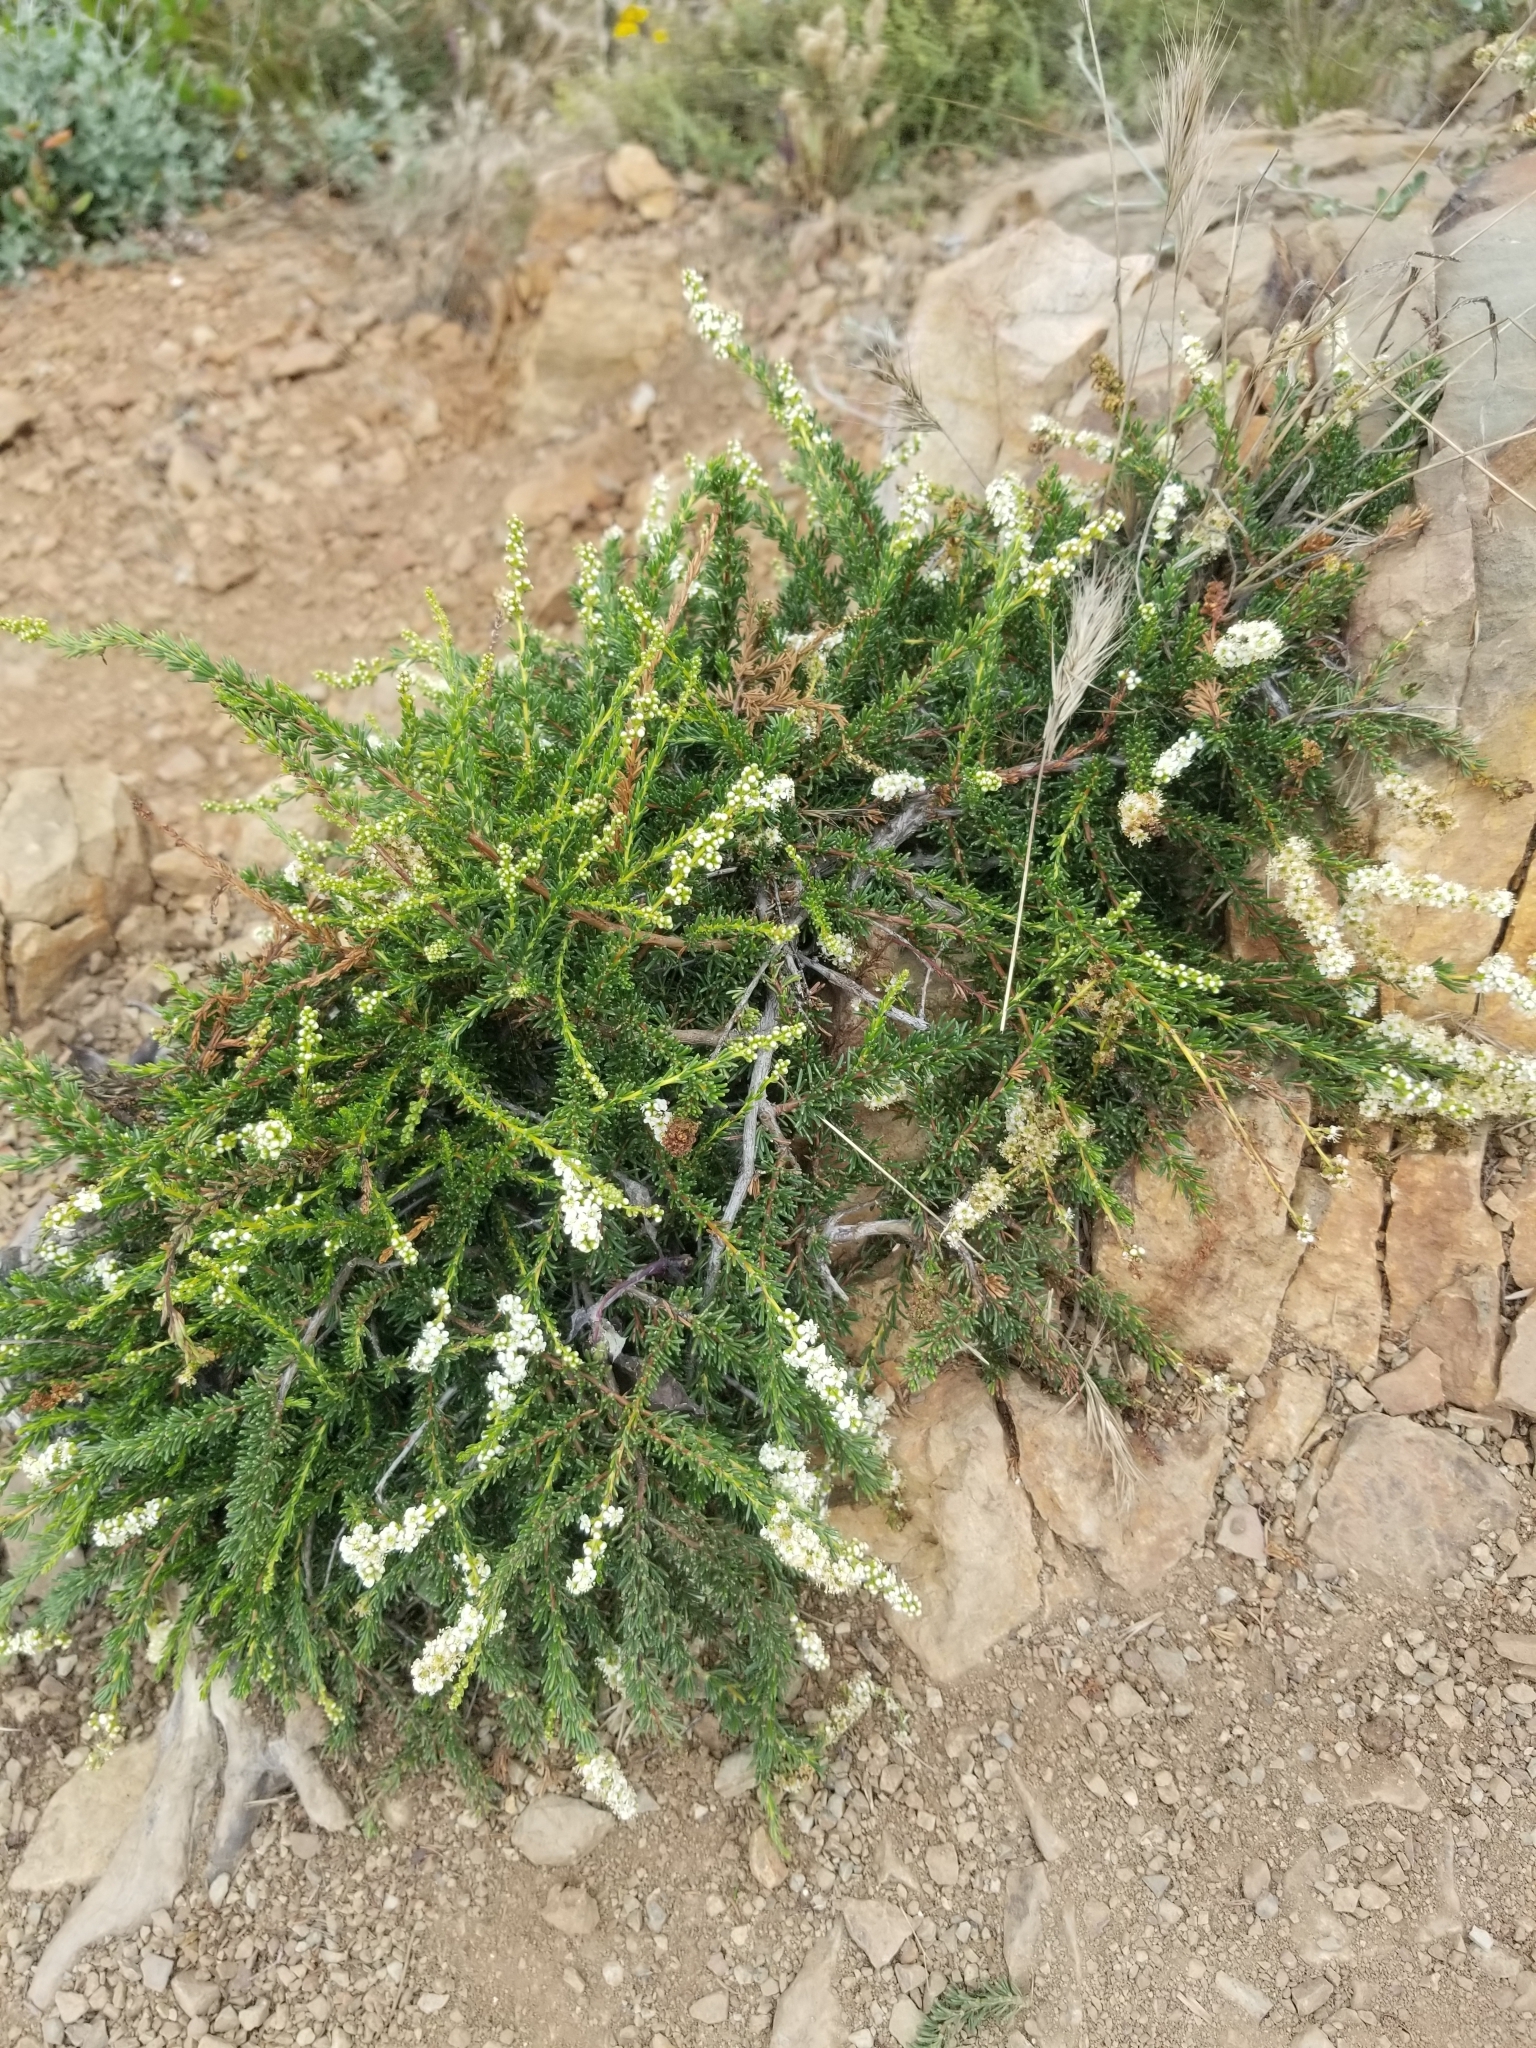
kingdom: Plantae
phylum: Tracheophyta
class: Magnoliopsida
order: Rosales
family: Rosaceae
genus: Adenostoma
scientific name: Adenostoma fasciculatum
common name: Chamise
